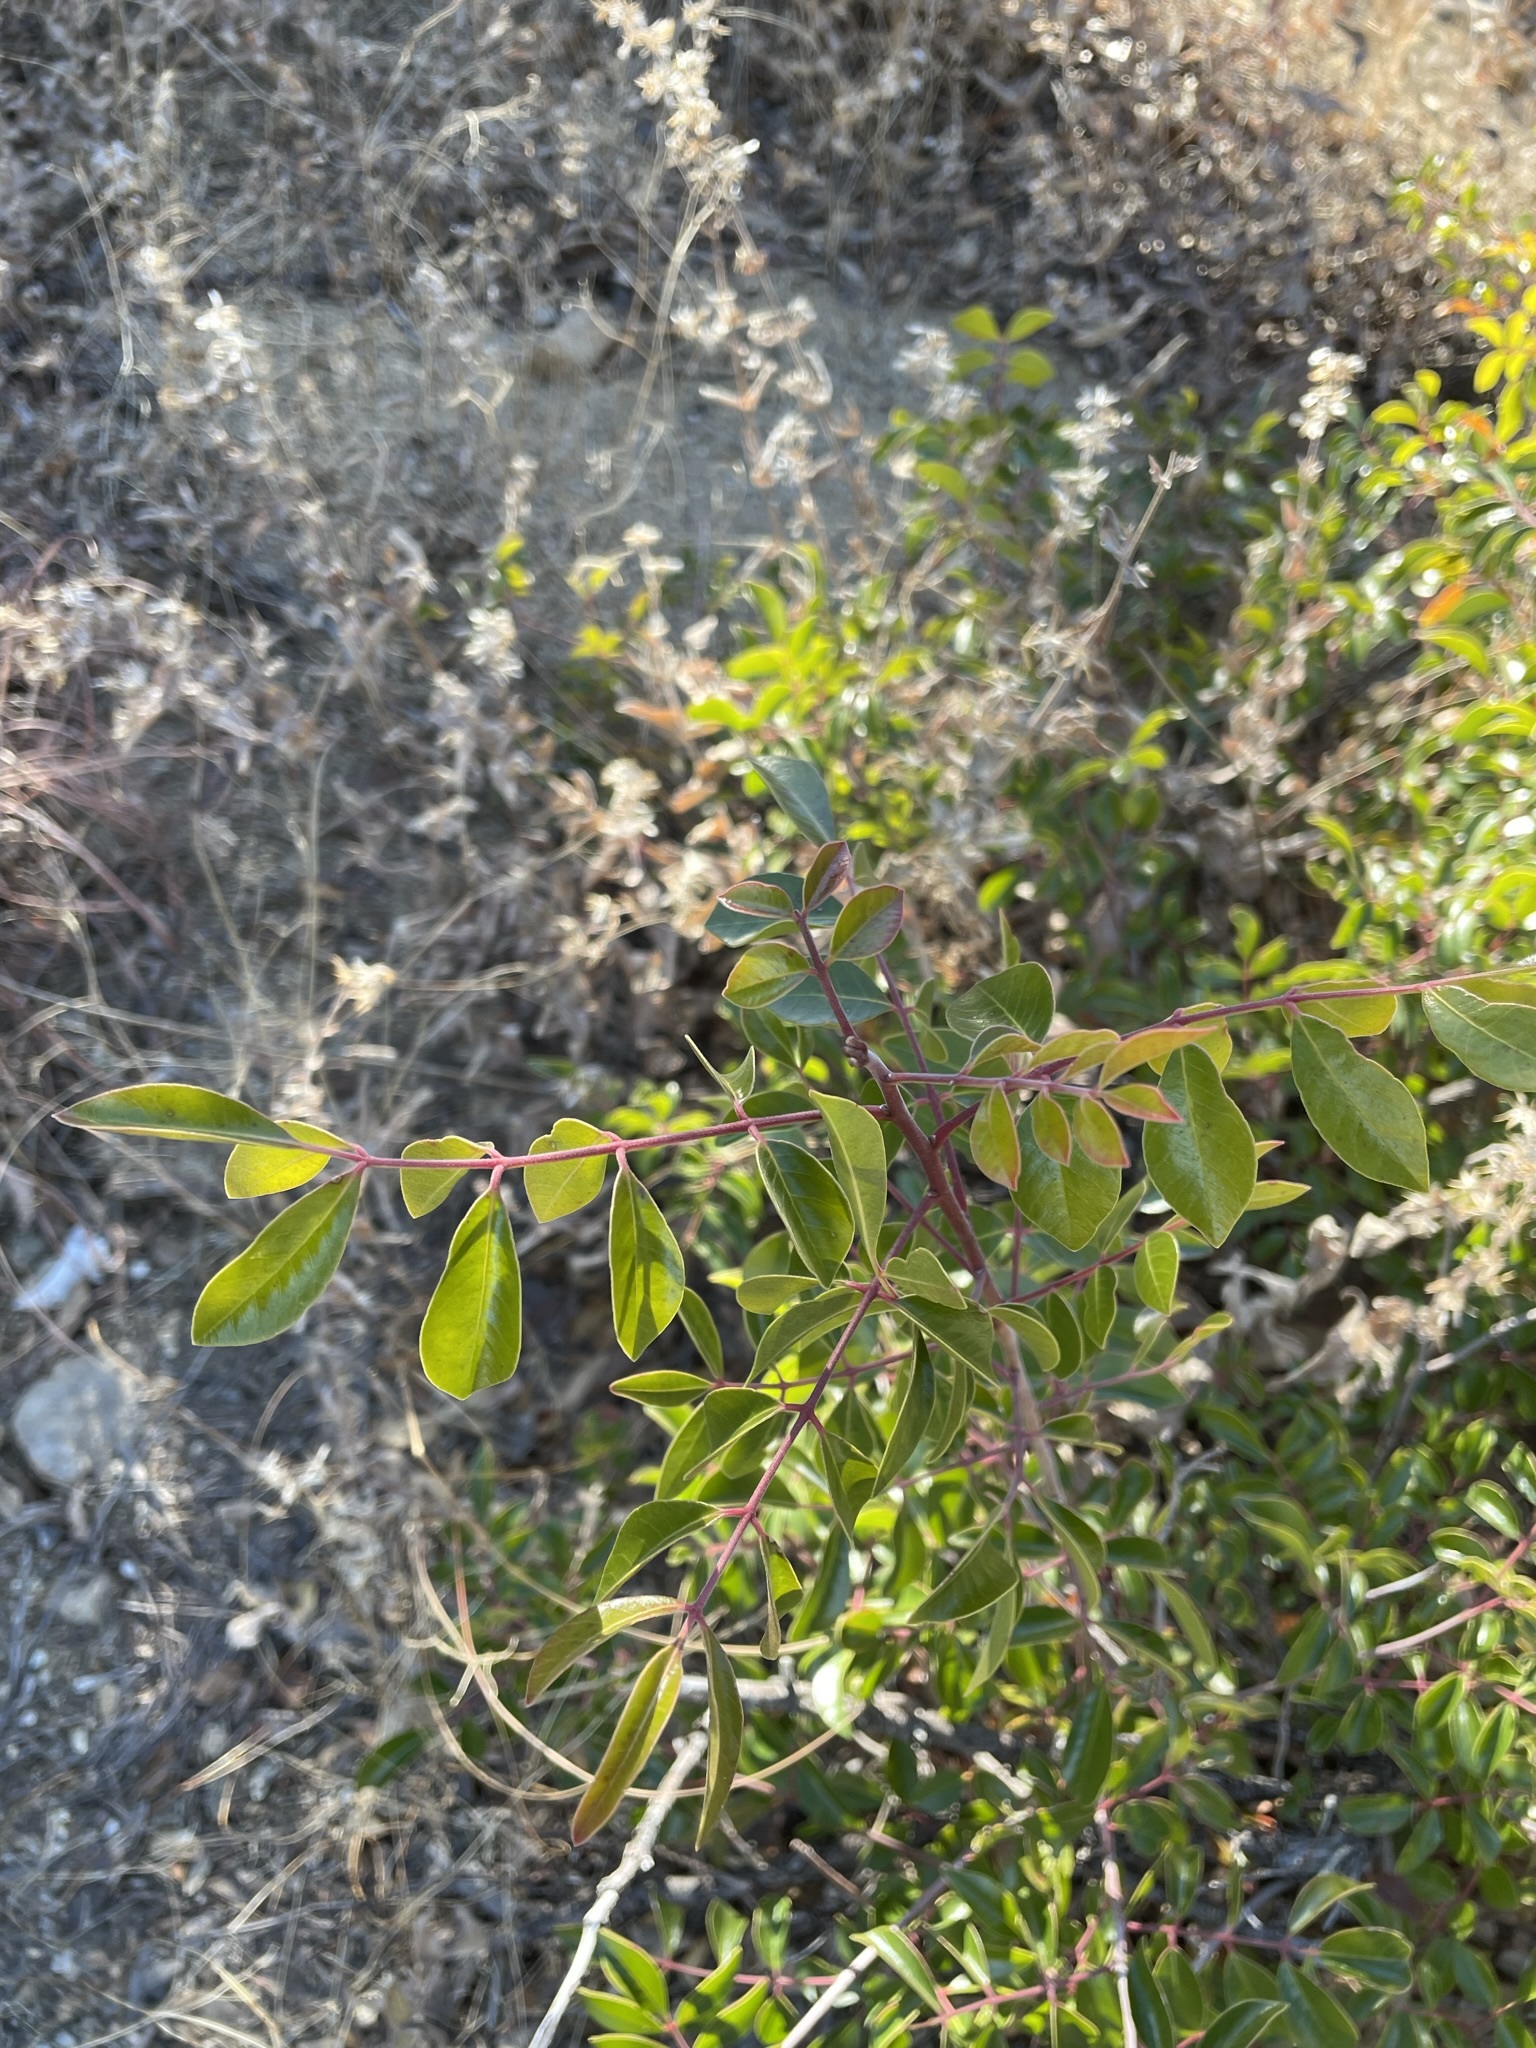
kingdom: Plantae
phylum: Tracheophyta
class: Magnoliopsida
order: Sapindales
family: Anacardiaceae
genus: Rhus
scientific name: Rhus virens
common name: Evergreen sumac
